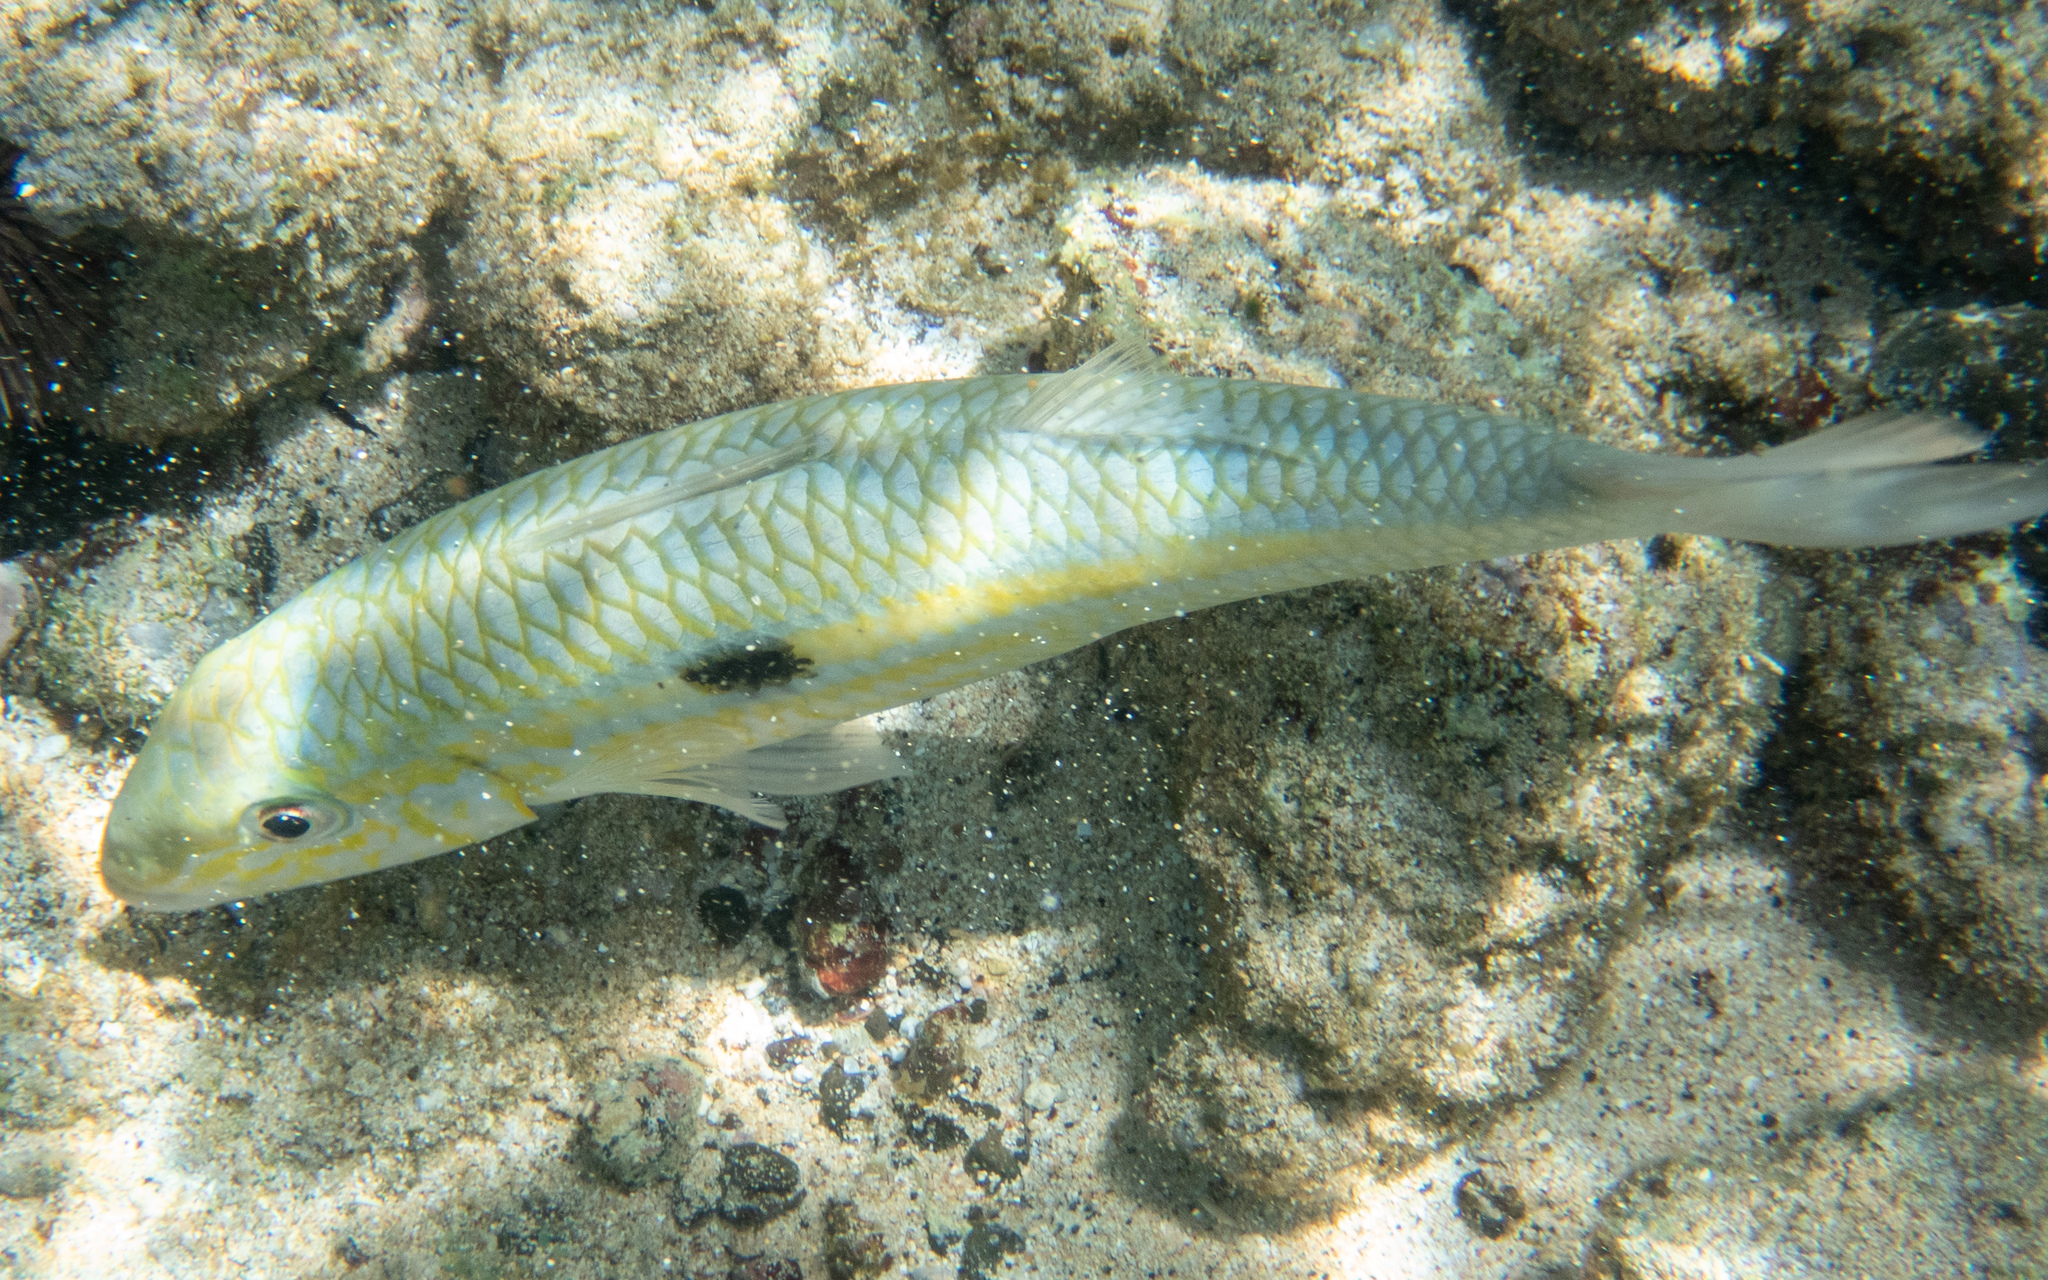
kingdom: Animalia
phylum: Chordata
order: Perciformes
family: Mullidae
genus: Mulloidichthys
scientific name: Mulloidichthys flavolineatus
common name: Yellowstripe goatfish
